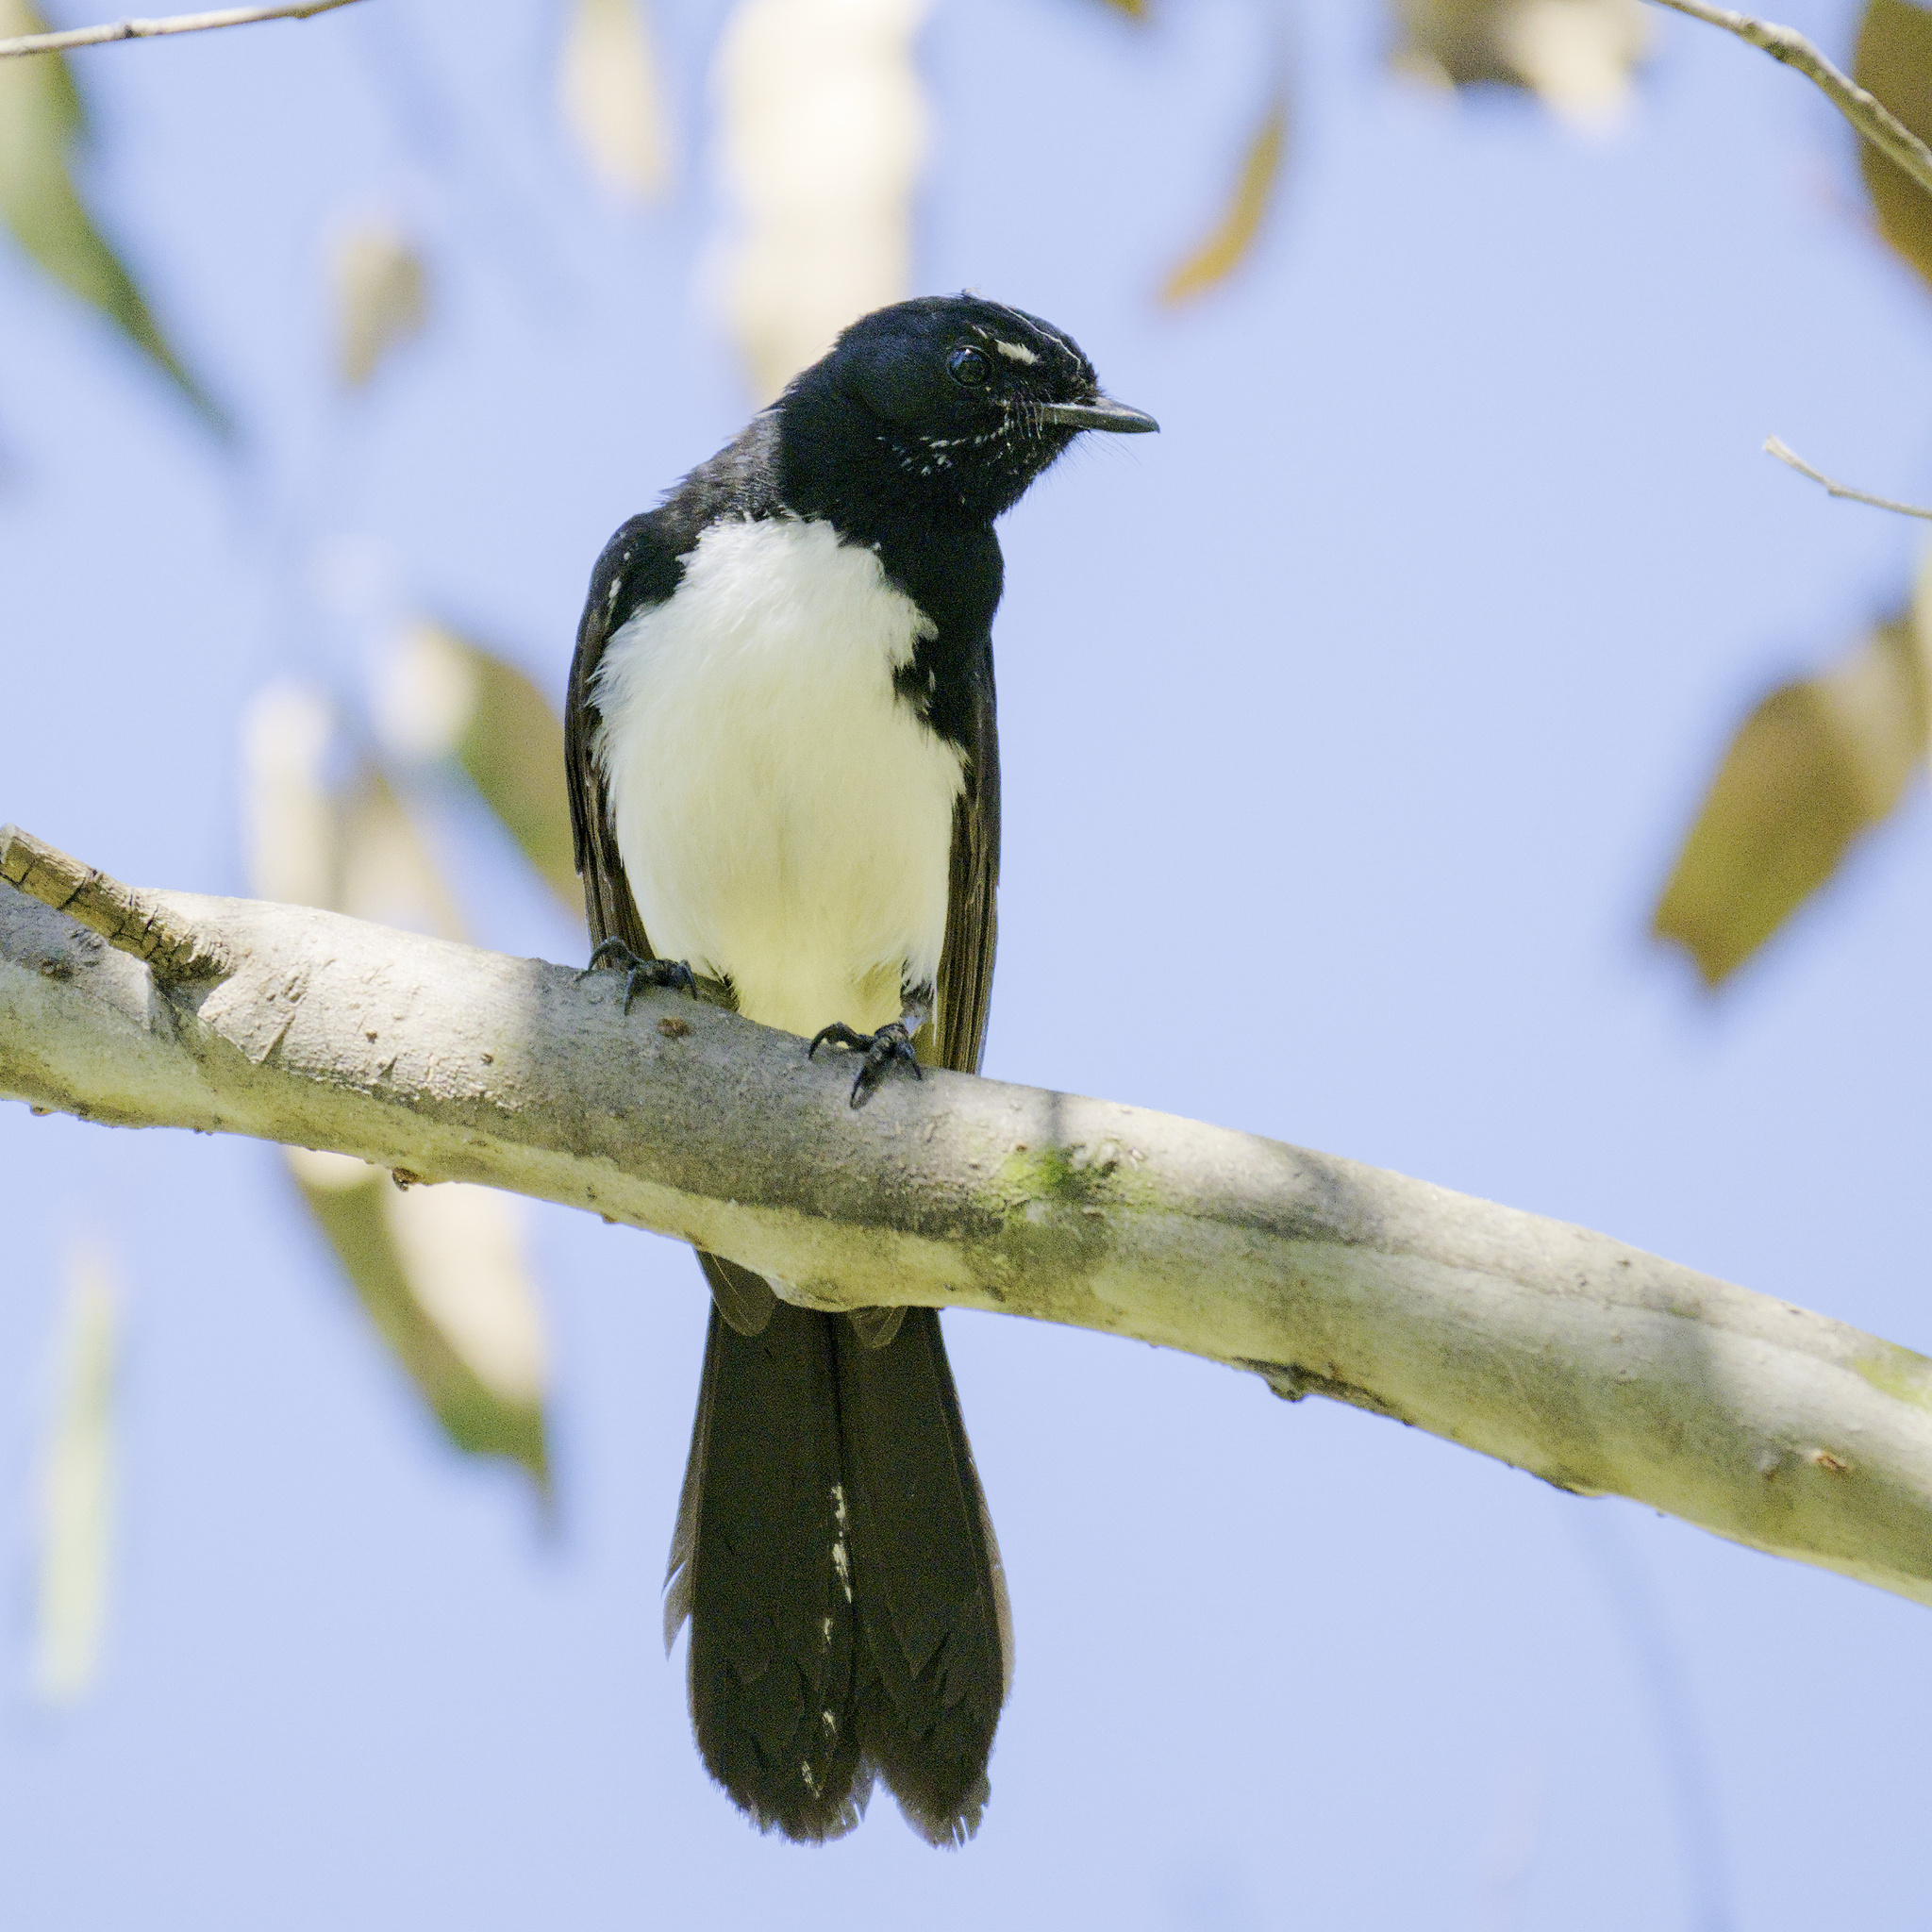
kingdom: Animalia
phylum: Chordata
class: Aves
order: Passeriformes
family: Rhipiduridae
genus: Rhipidura
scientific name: Rhipidura leucophrys
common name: Willie wagtail
